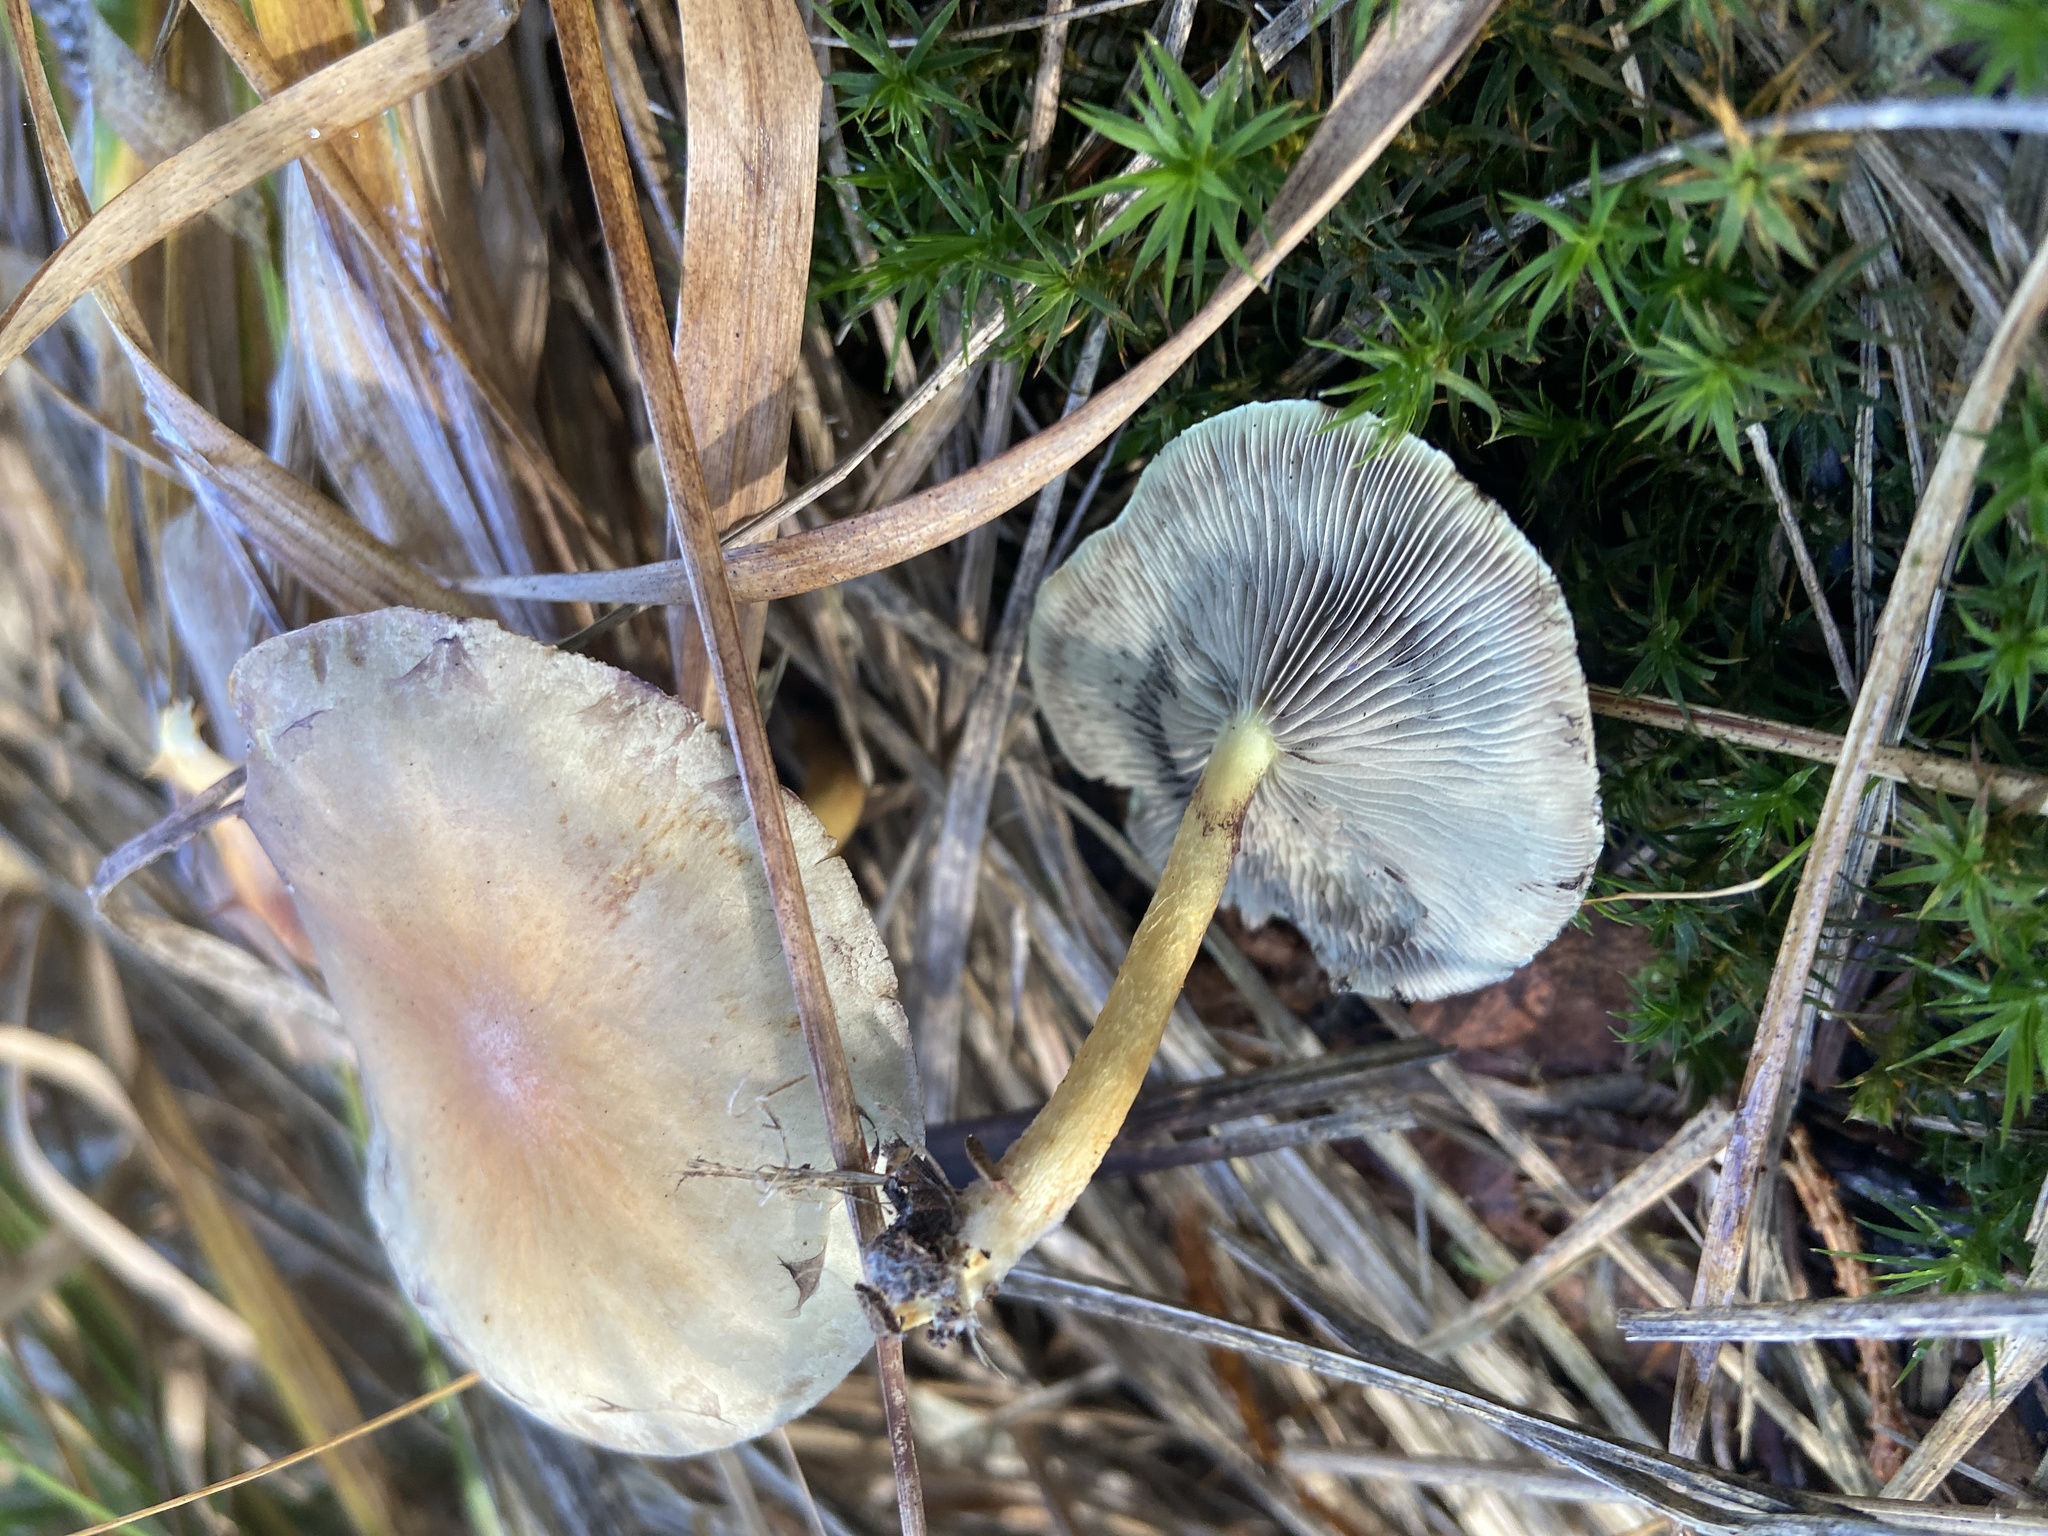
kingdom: Fungi
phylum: Basidiomycota
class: Agaricomycetes
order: Agaricales
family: Strophariaceae
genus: Hypholoma
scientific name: Hypholoma fasciculare
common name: Sulphur tuft
